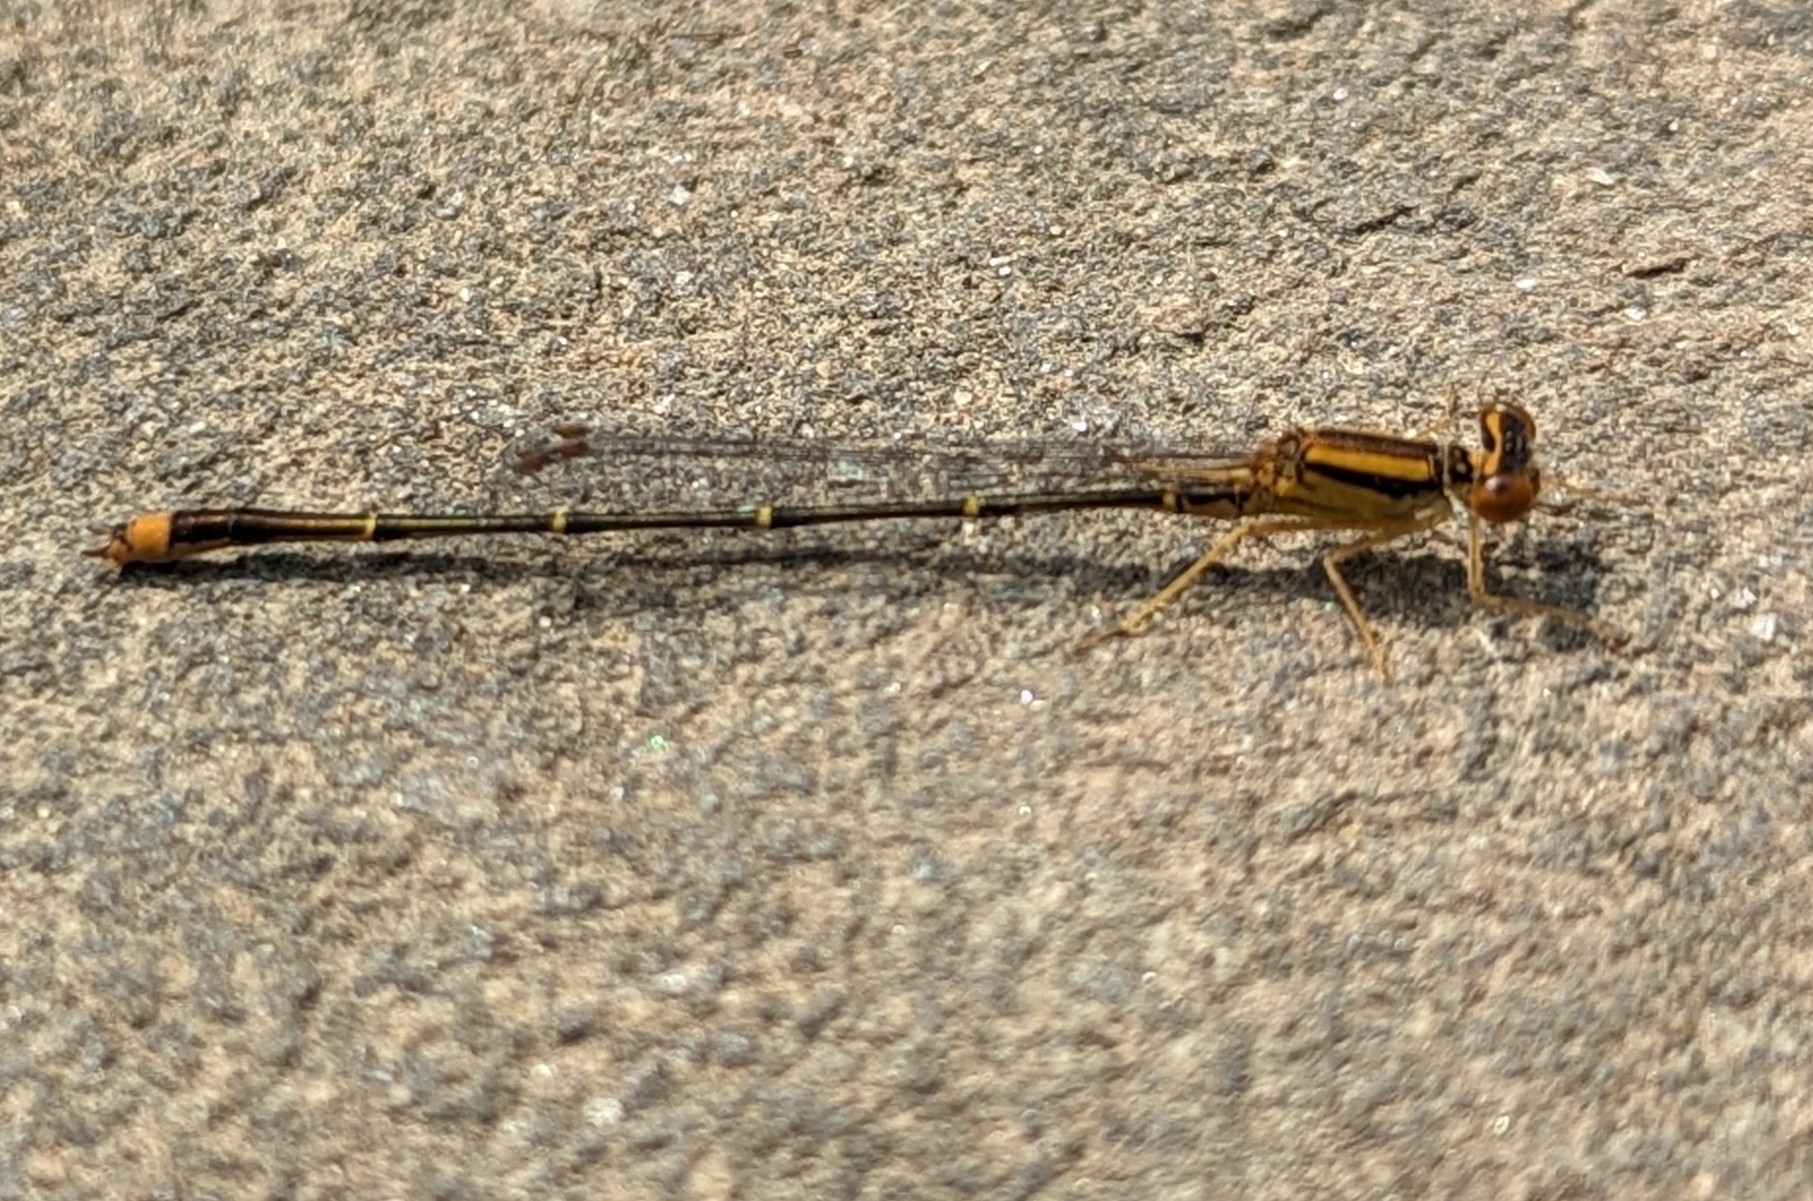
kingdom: Animalia
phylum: Arthropoda
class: Insecta
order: Odonata
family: Coenagrionidae
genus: Enallagma
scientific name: Enallagma signatum
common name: Orange bluet
